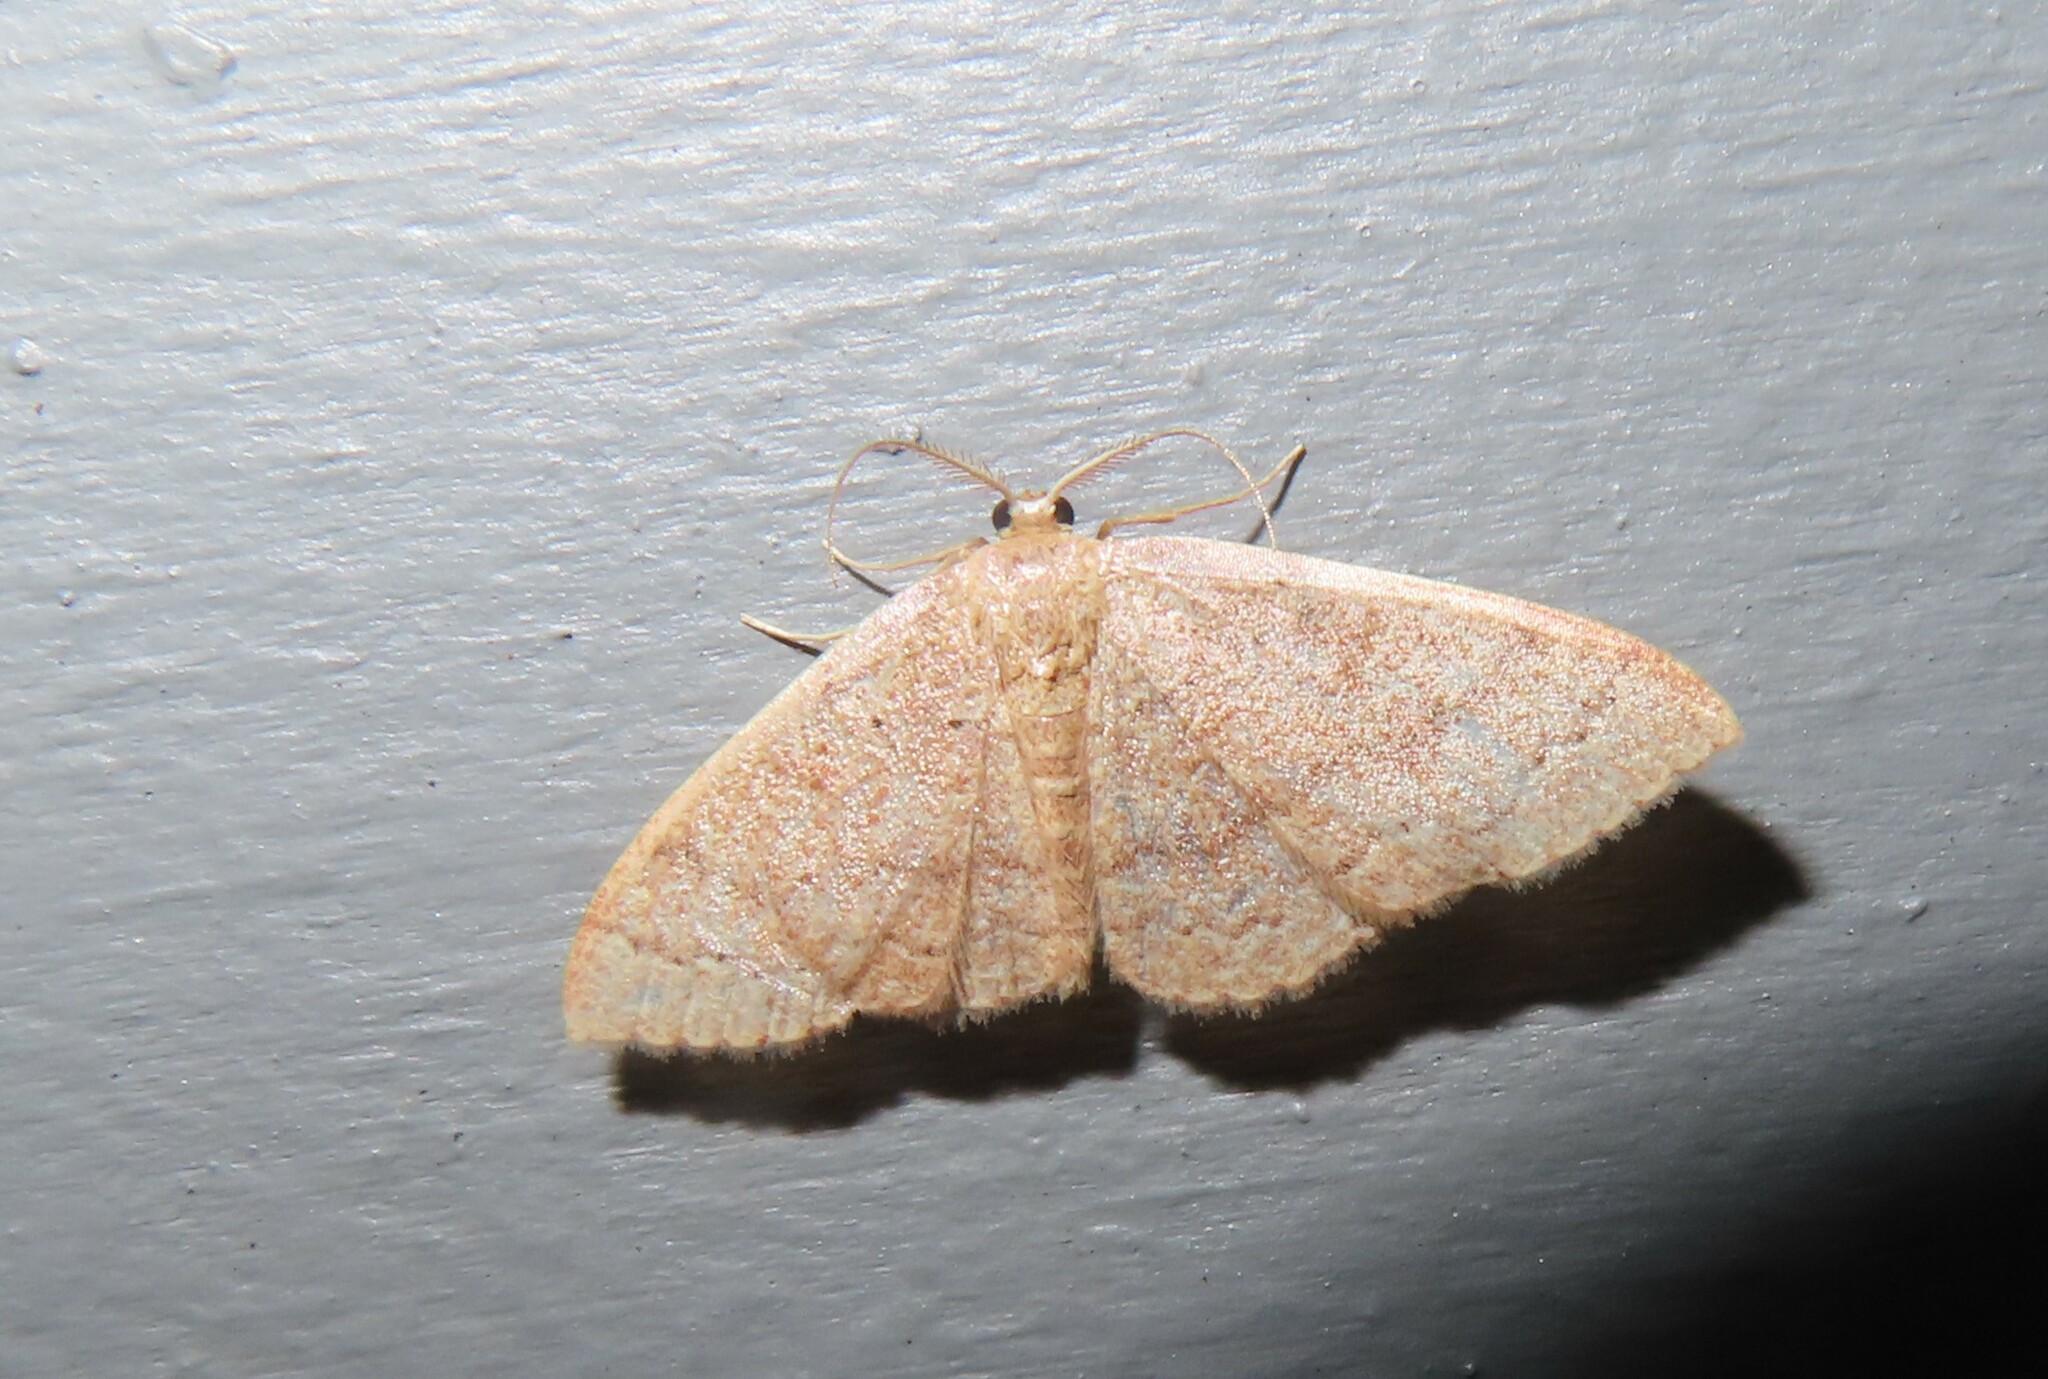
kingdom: Animalia
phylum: Arthropoda
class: Insecta
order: Lepidoptera
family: Geometridae
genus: Pleuroprucha
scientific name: Pleuroprucha insulsaria
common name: Common tan wave
